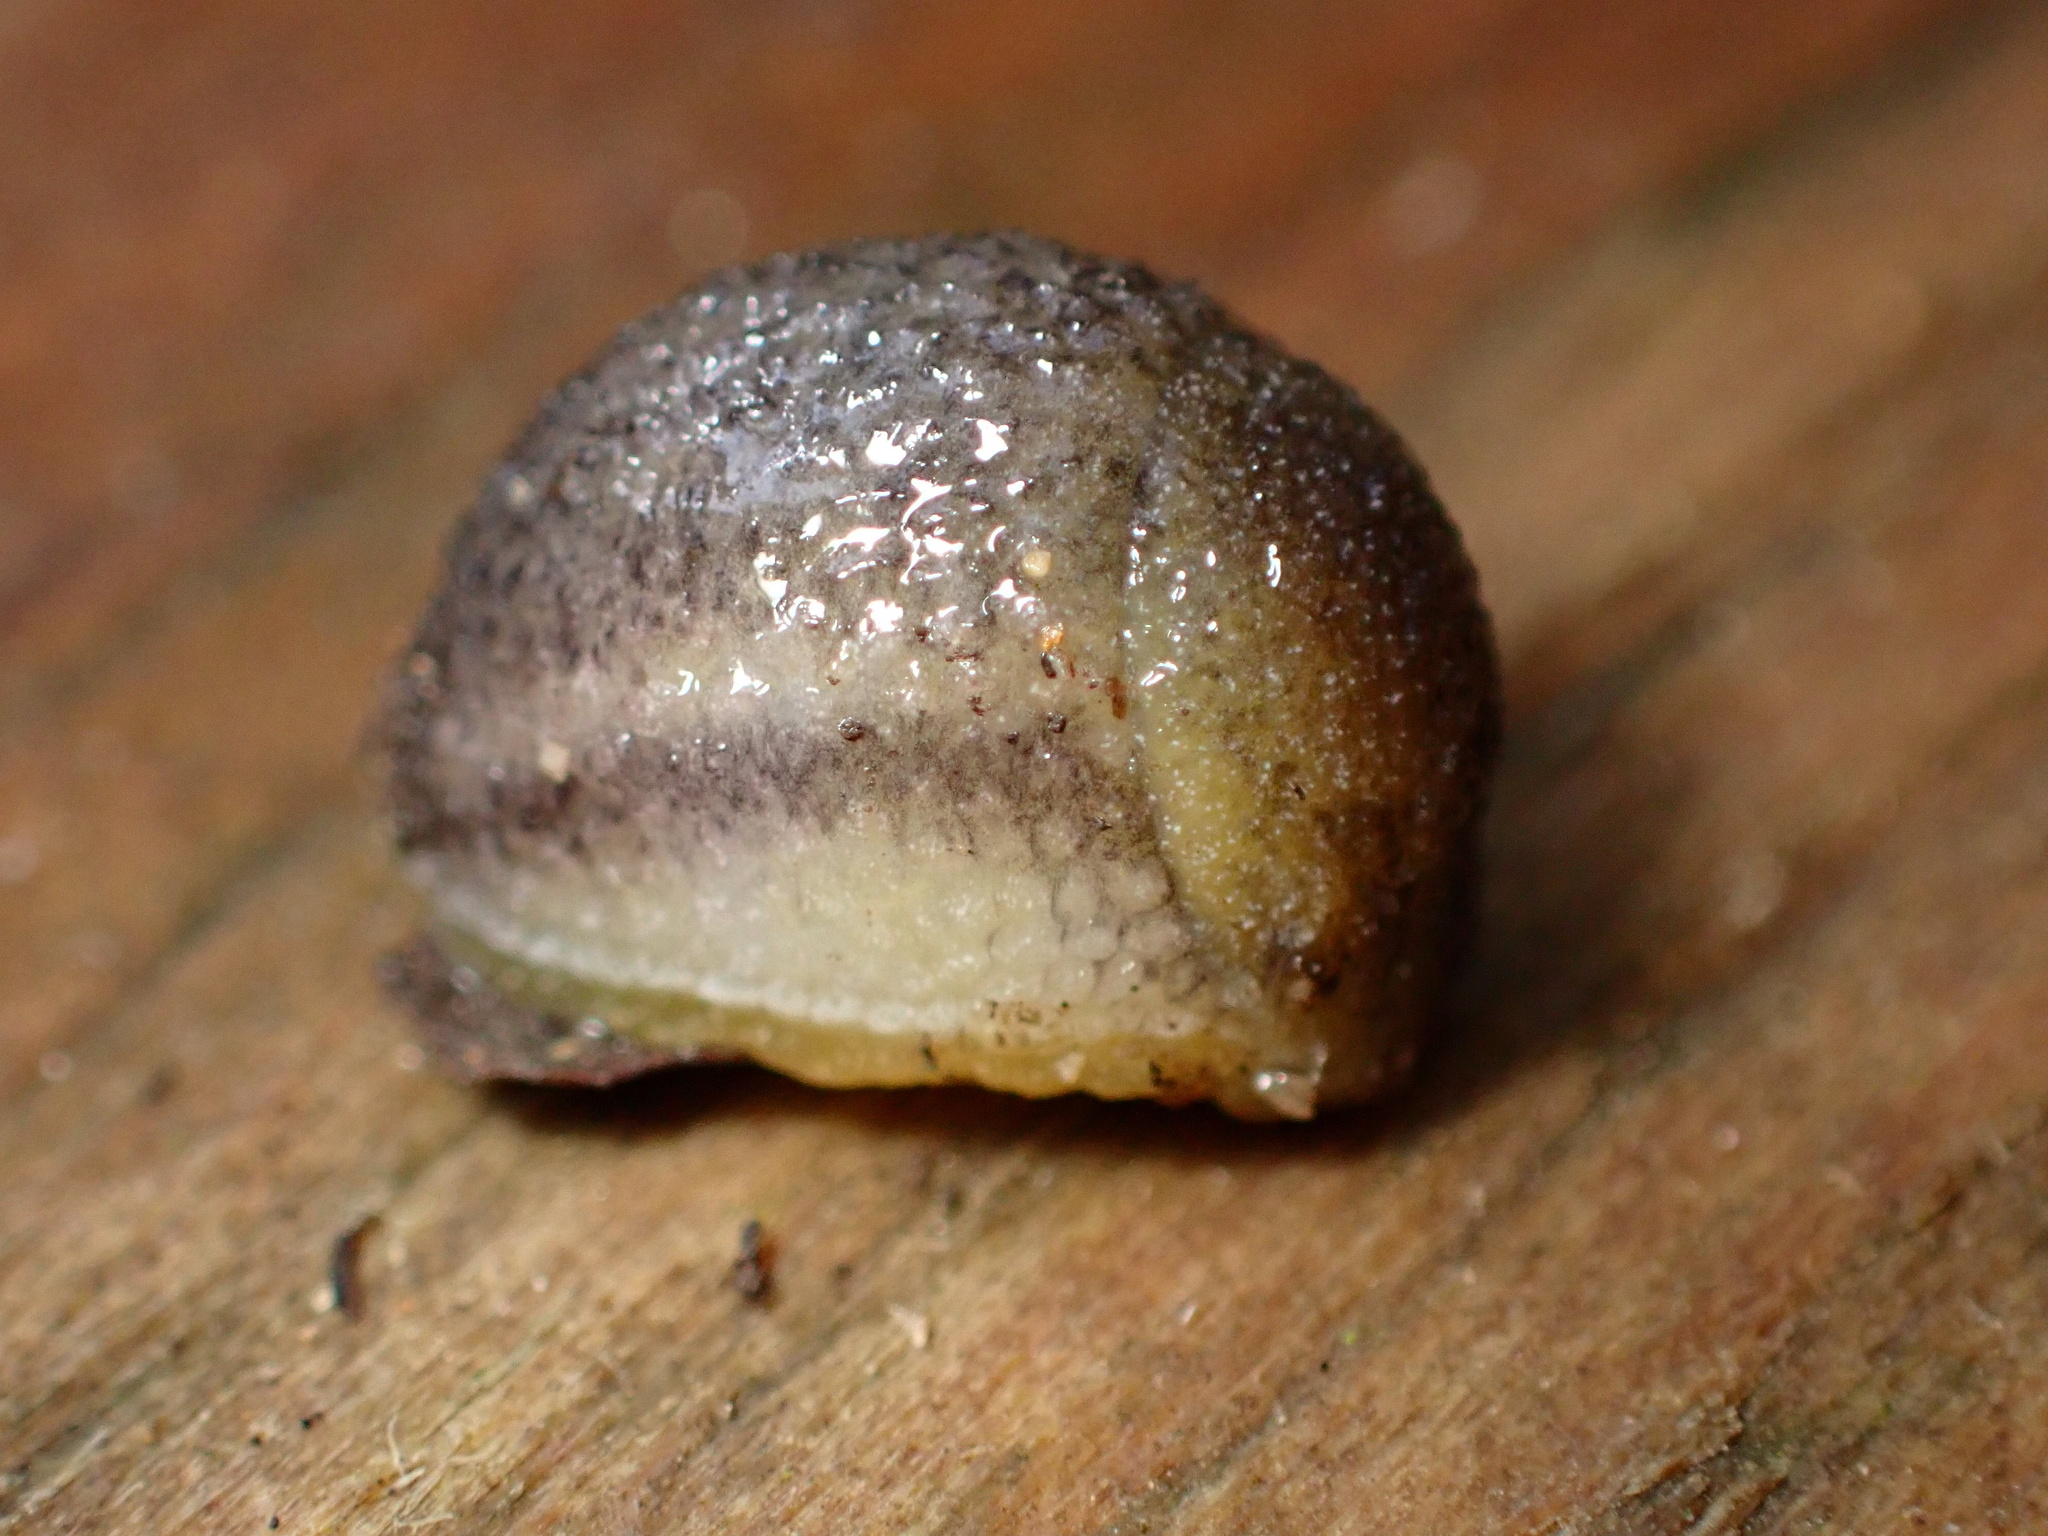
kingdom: Animalia
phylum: Mollusca
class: Gastropoda
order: Stylommatophora
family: Arionidae
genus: Arion
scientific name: Arion intermedius
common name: Hedgehog slug
